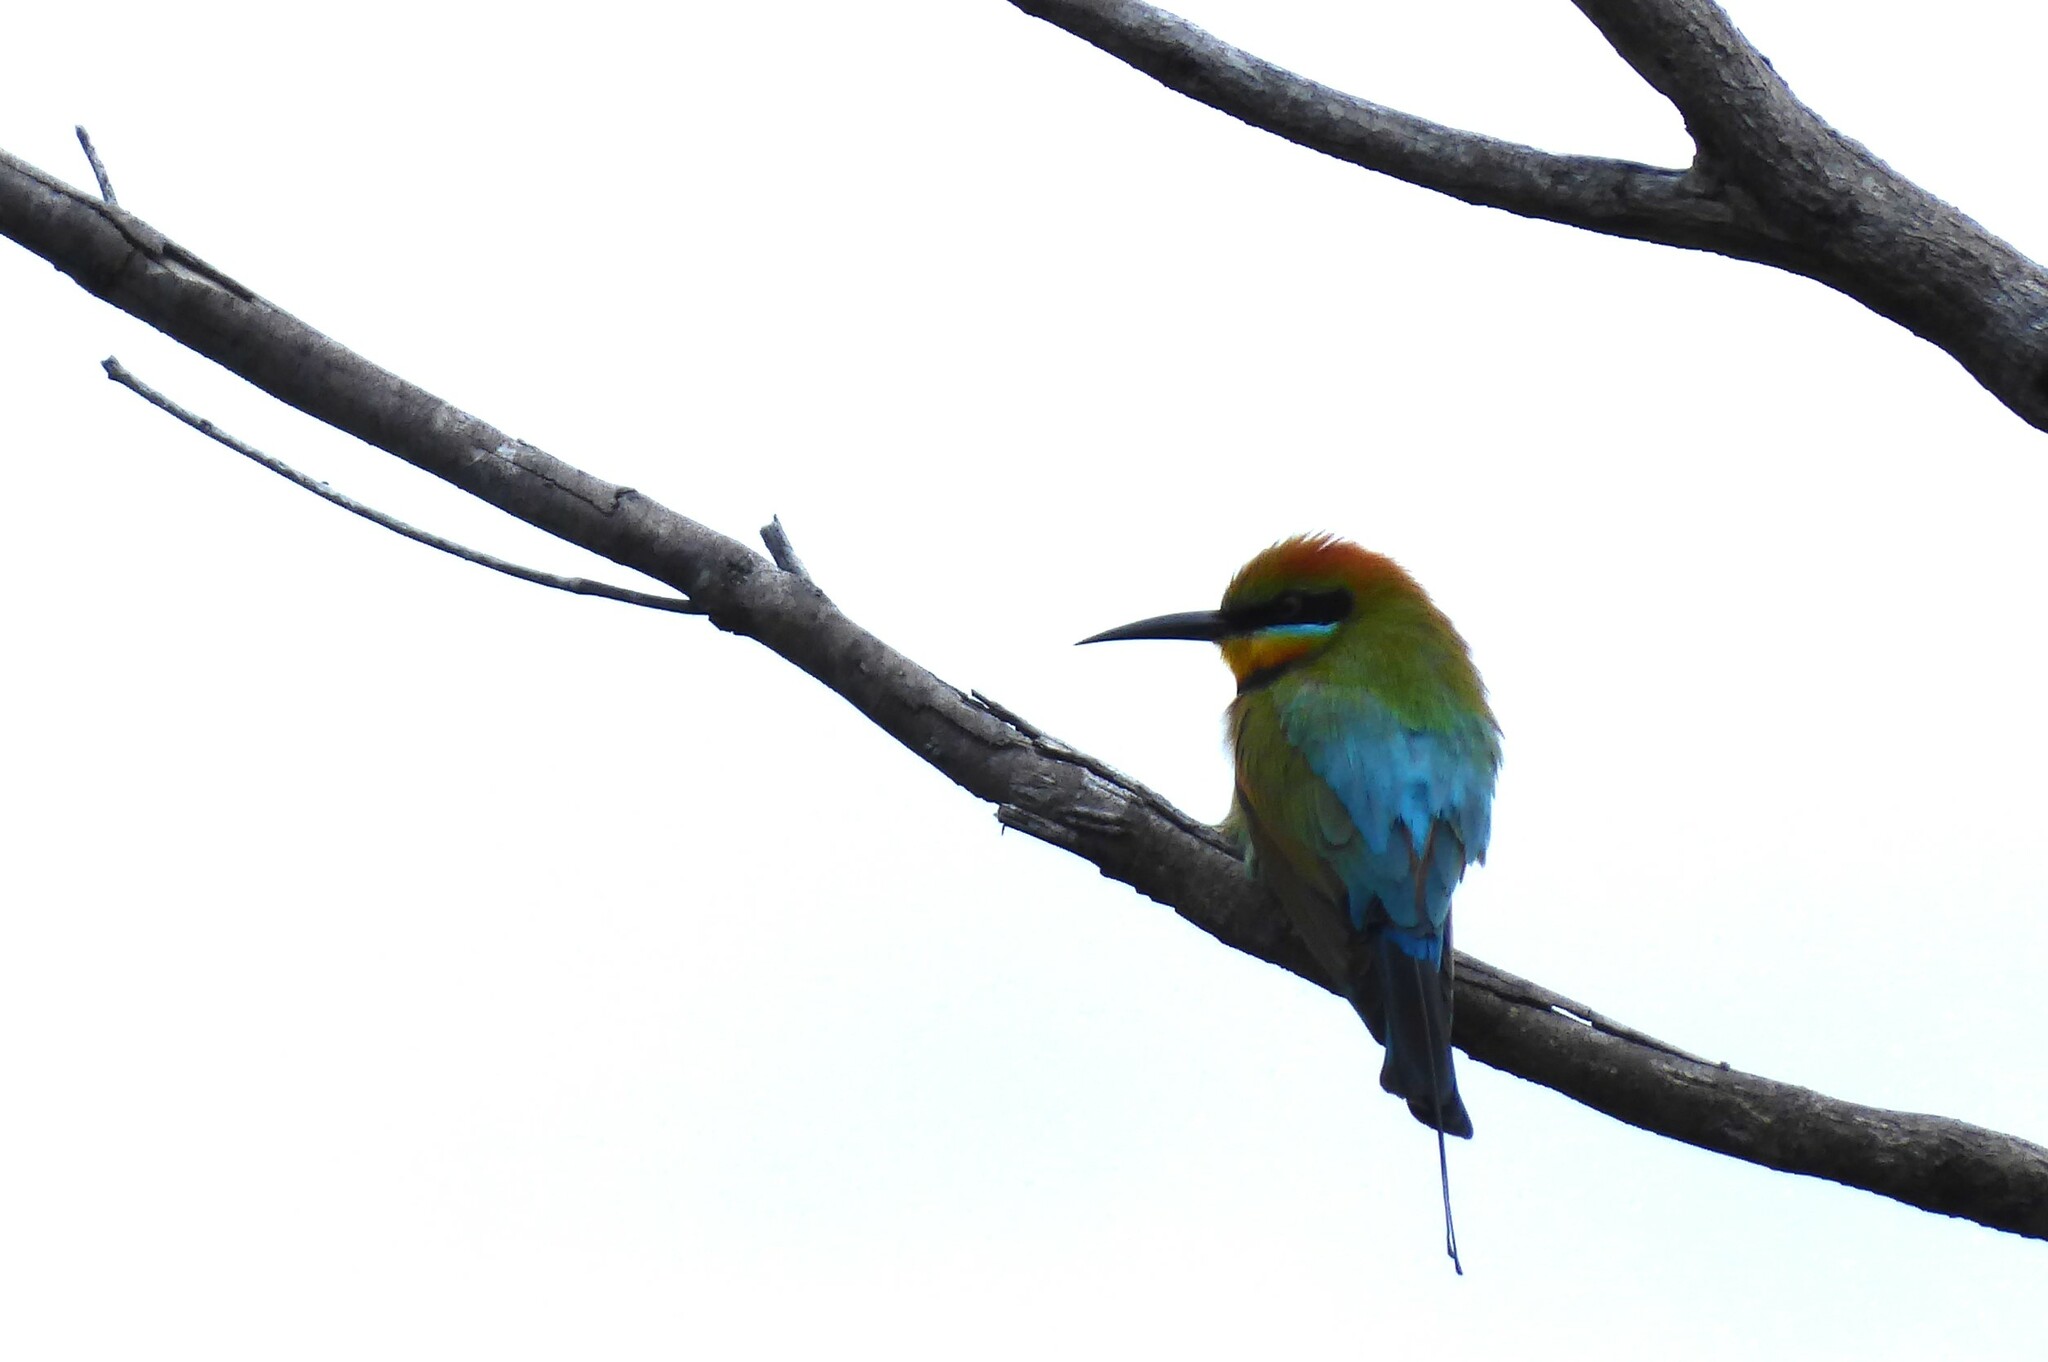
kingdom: Animalia
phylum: Chordata
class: Aves
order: Coraciiformes
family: Meropidae
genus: Merops
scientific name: Merops ornatus
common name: Rainbow bee-eater
